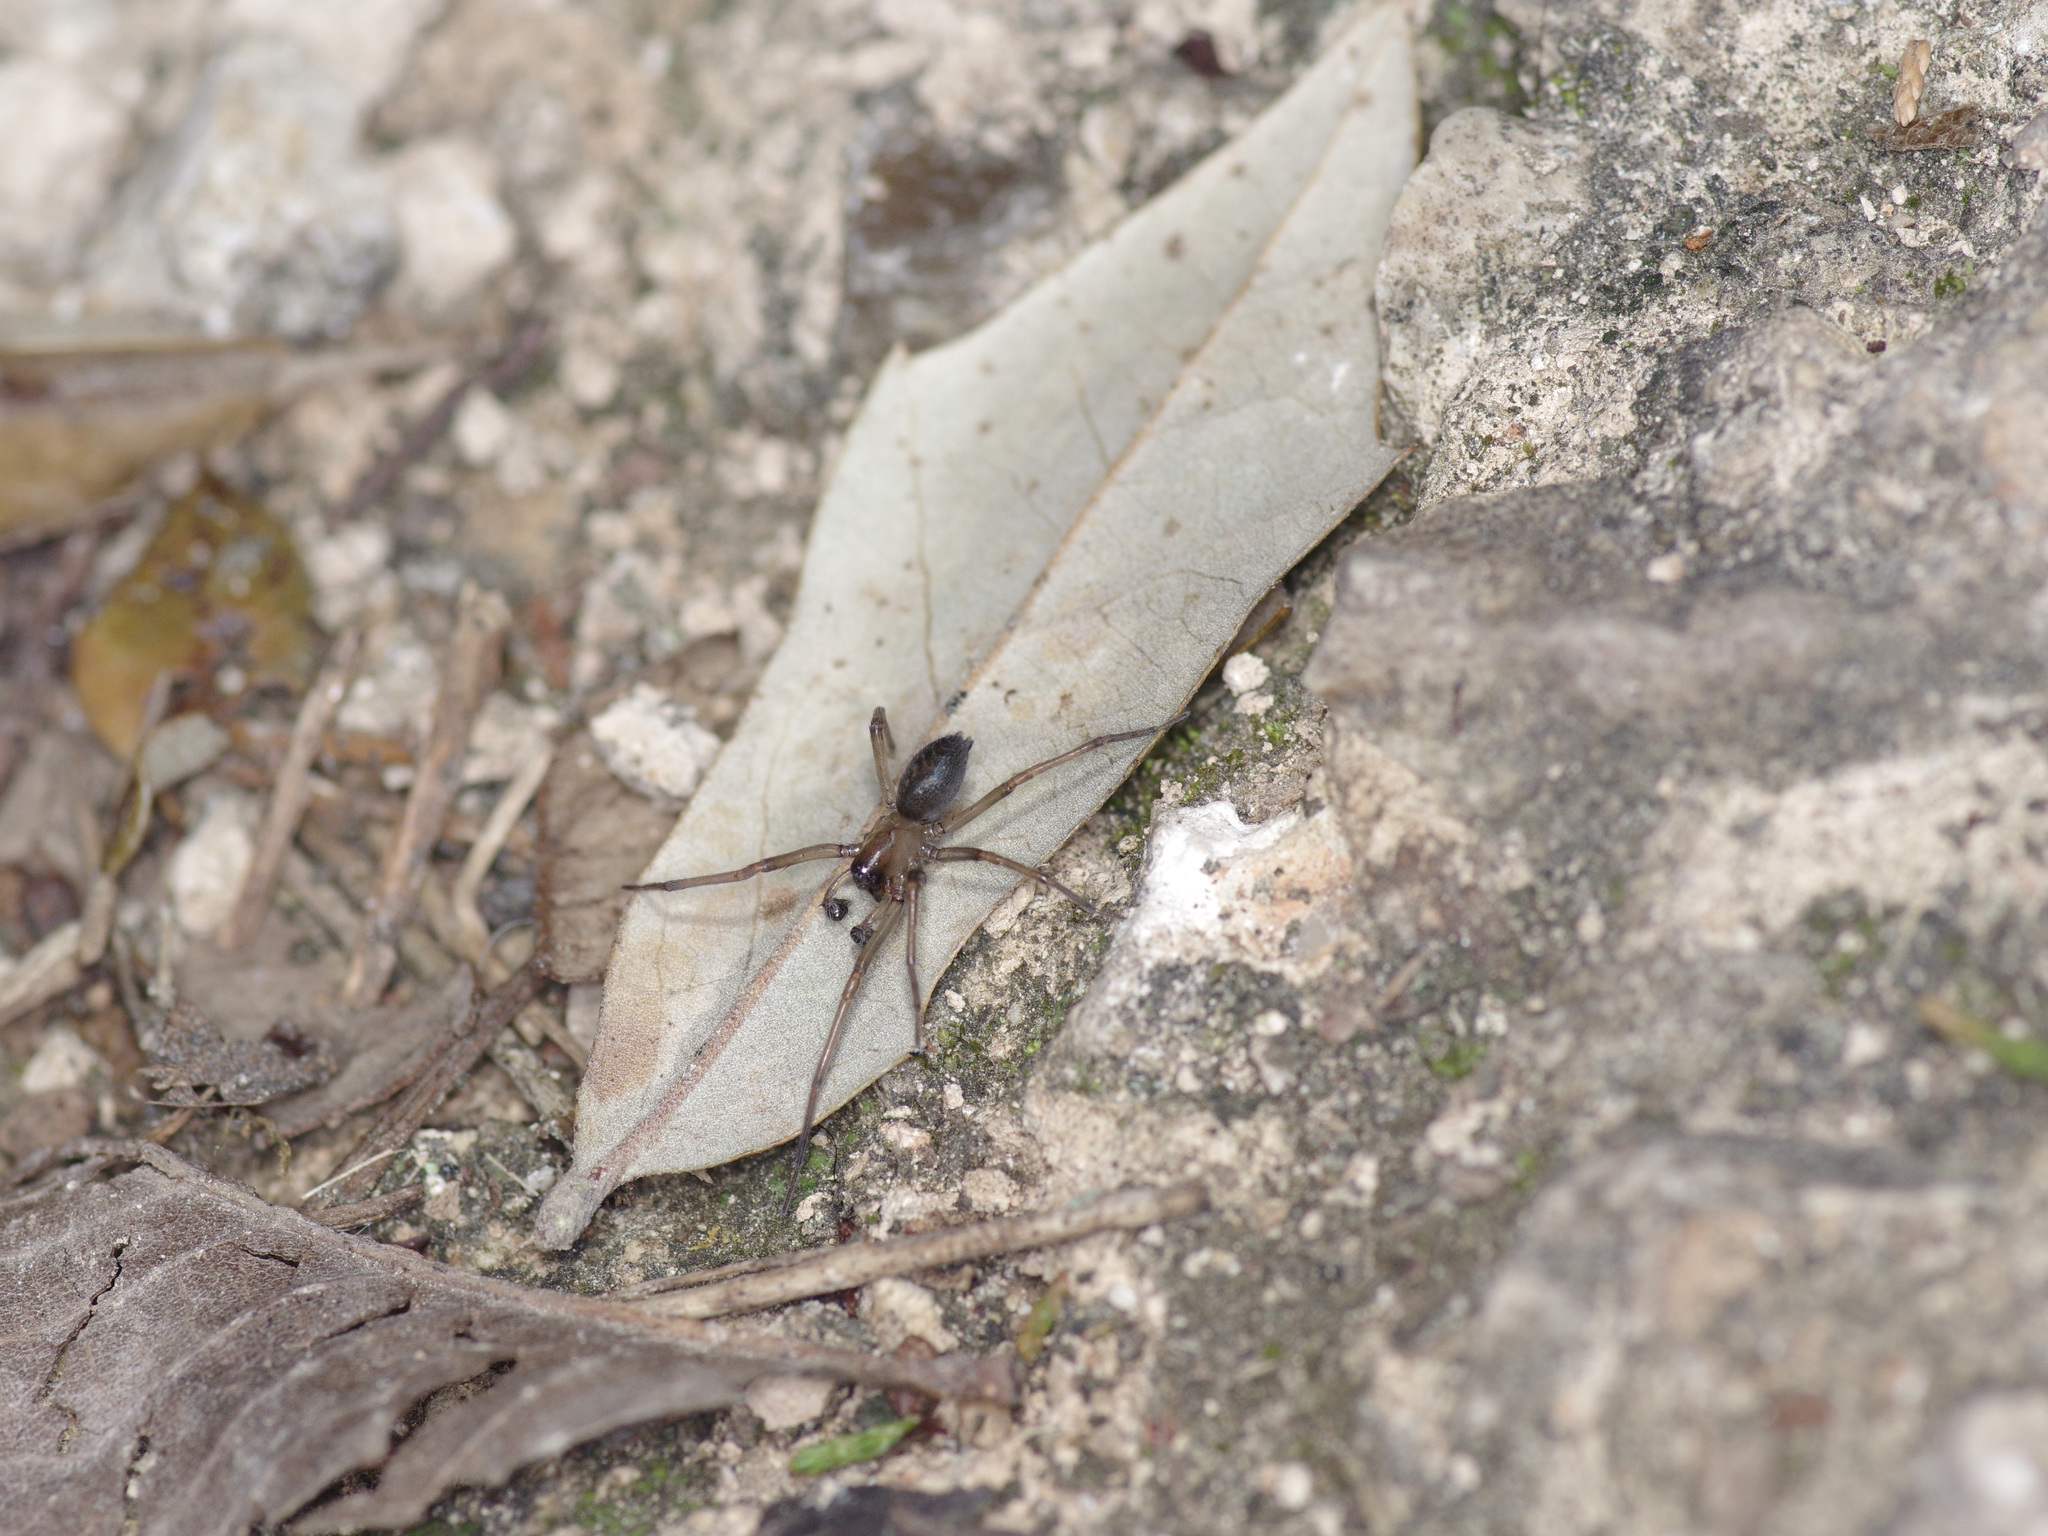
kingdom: Animalia
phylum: Arthropoda
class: Arachnida
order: Araneae
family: Desidae
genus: Metaltella
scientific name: Metaltella simoni
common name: Cribellate spider
